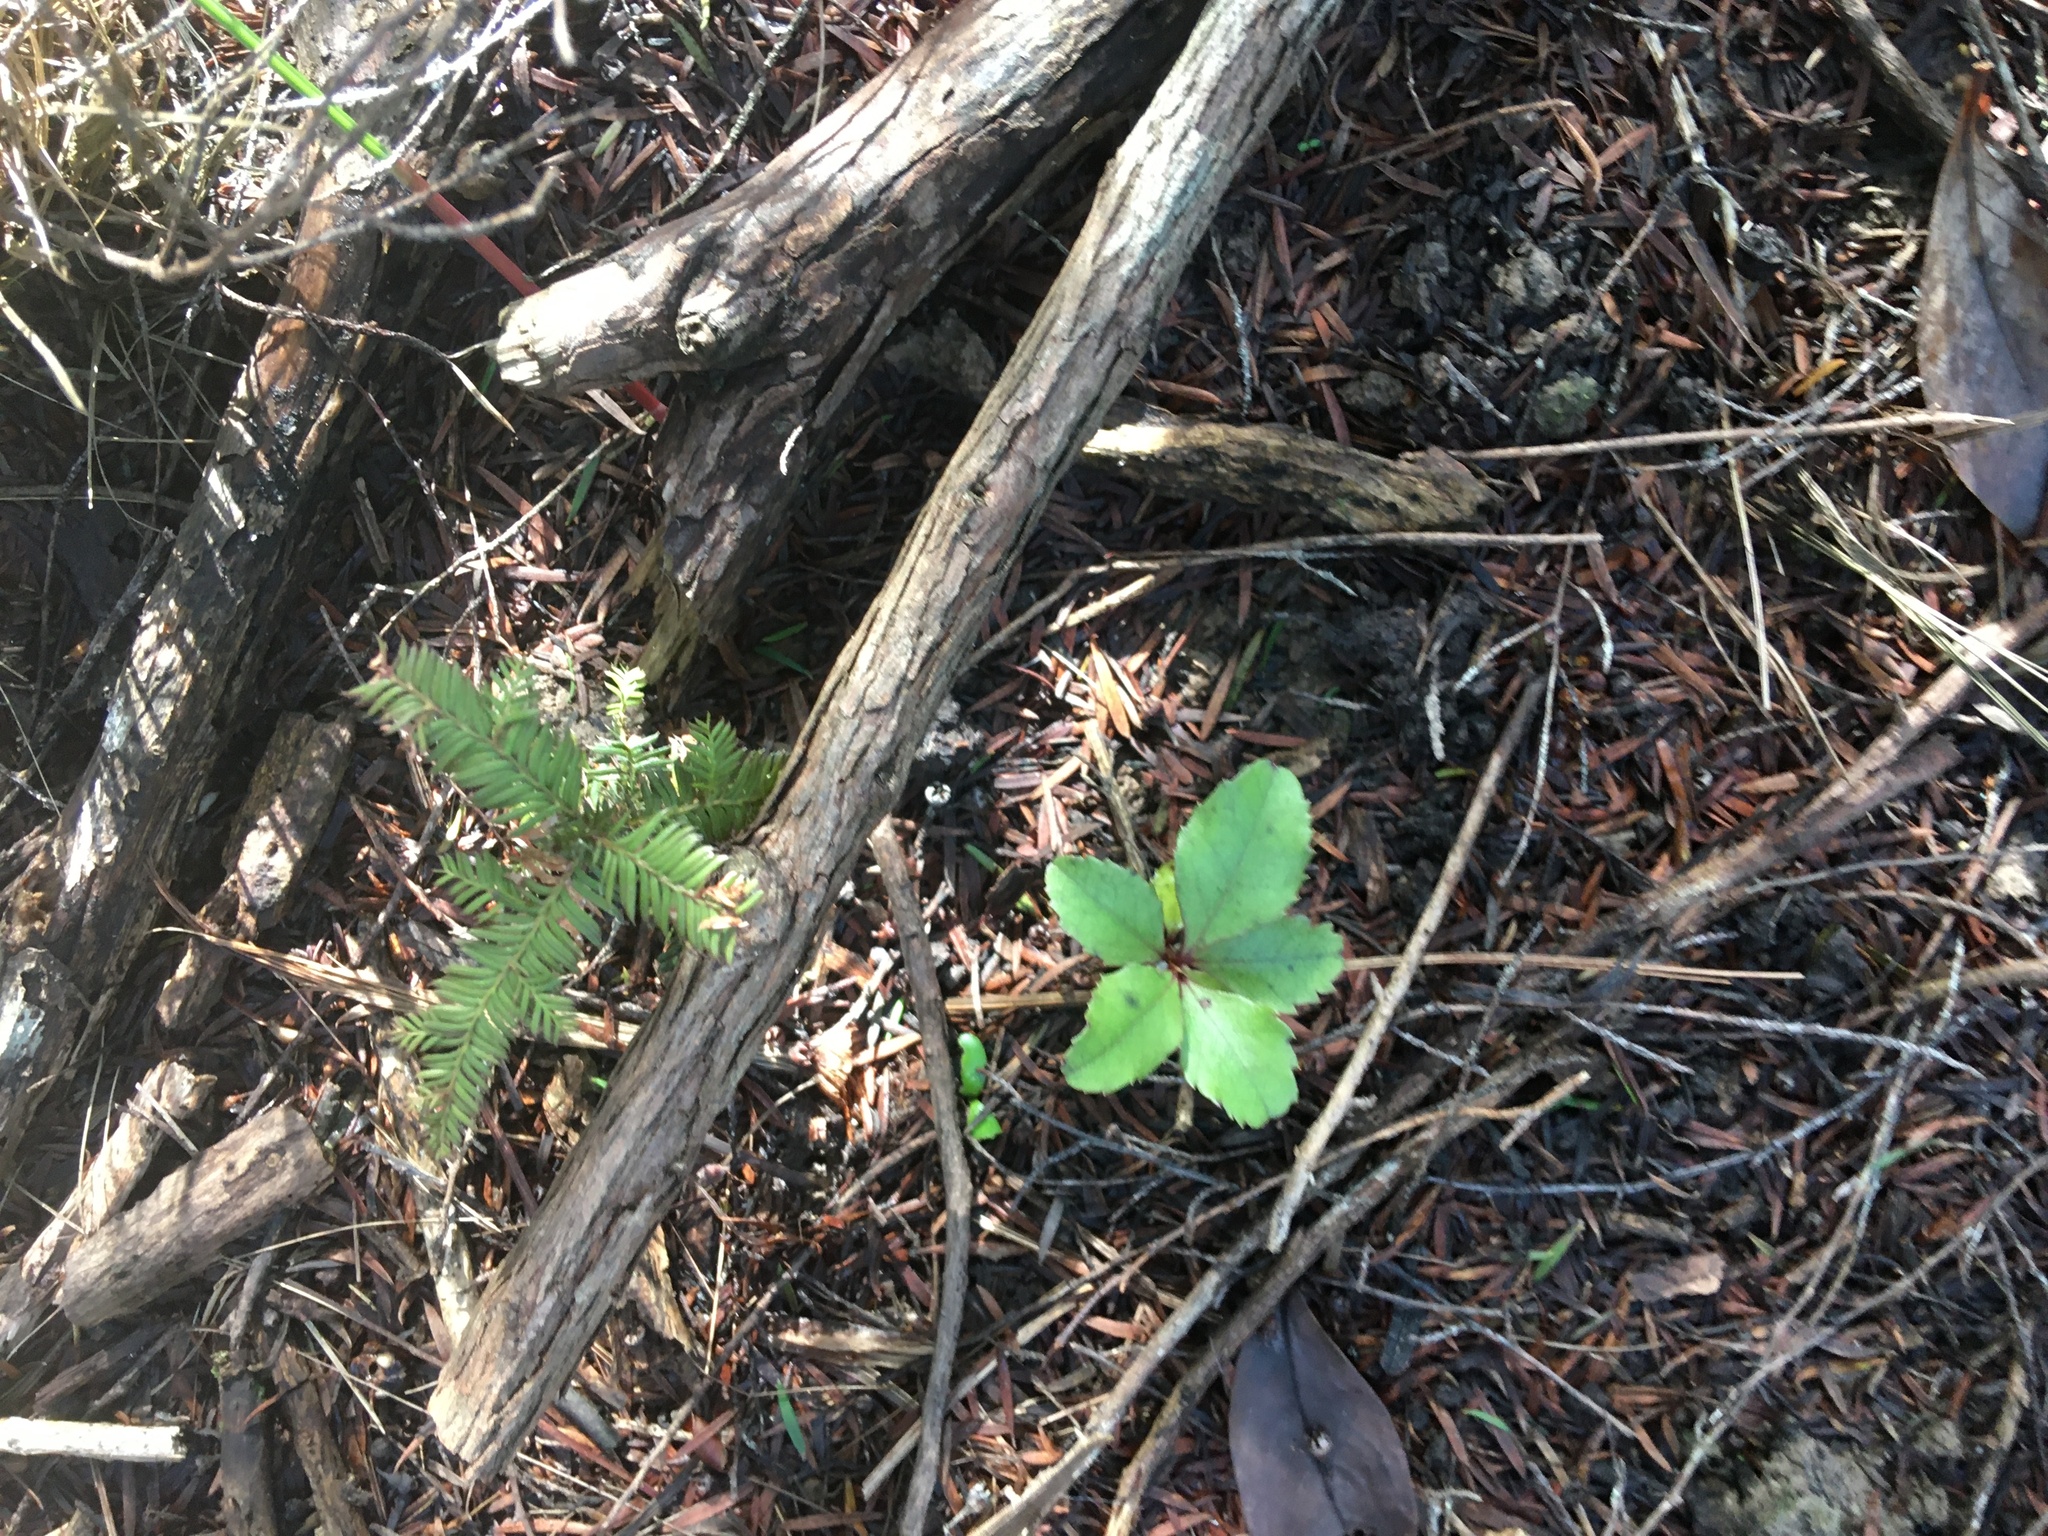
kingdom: Plantae
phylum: Tracheophyta
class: Pinopsida
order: Pinales
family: Podocarpaceae
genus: Dacrycarpus
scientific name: Dacrycarpus dacrydioides
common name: White pine
